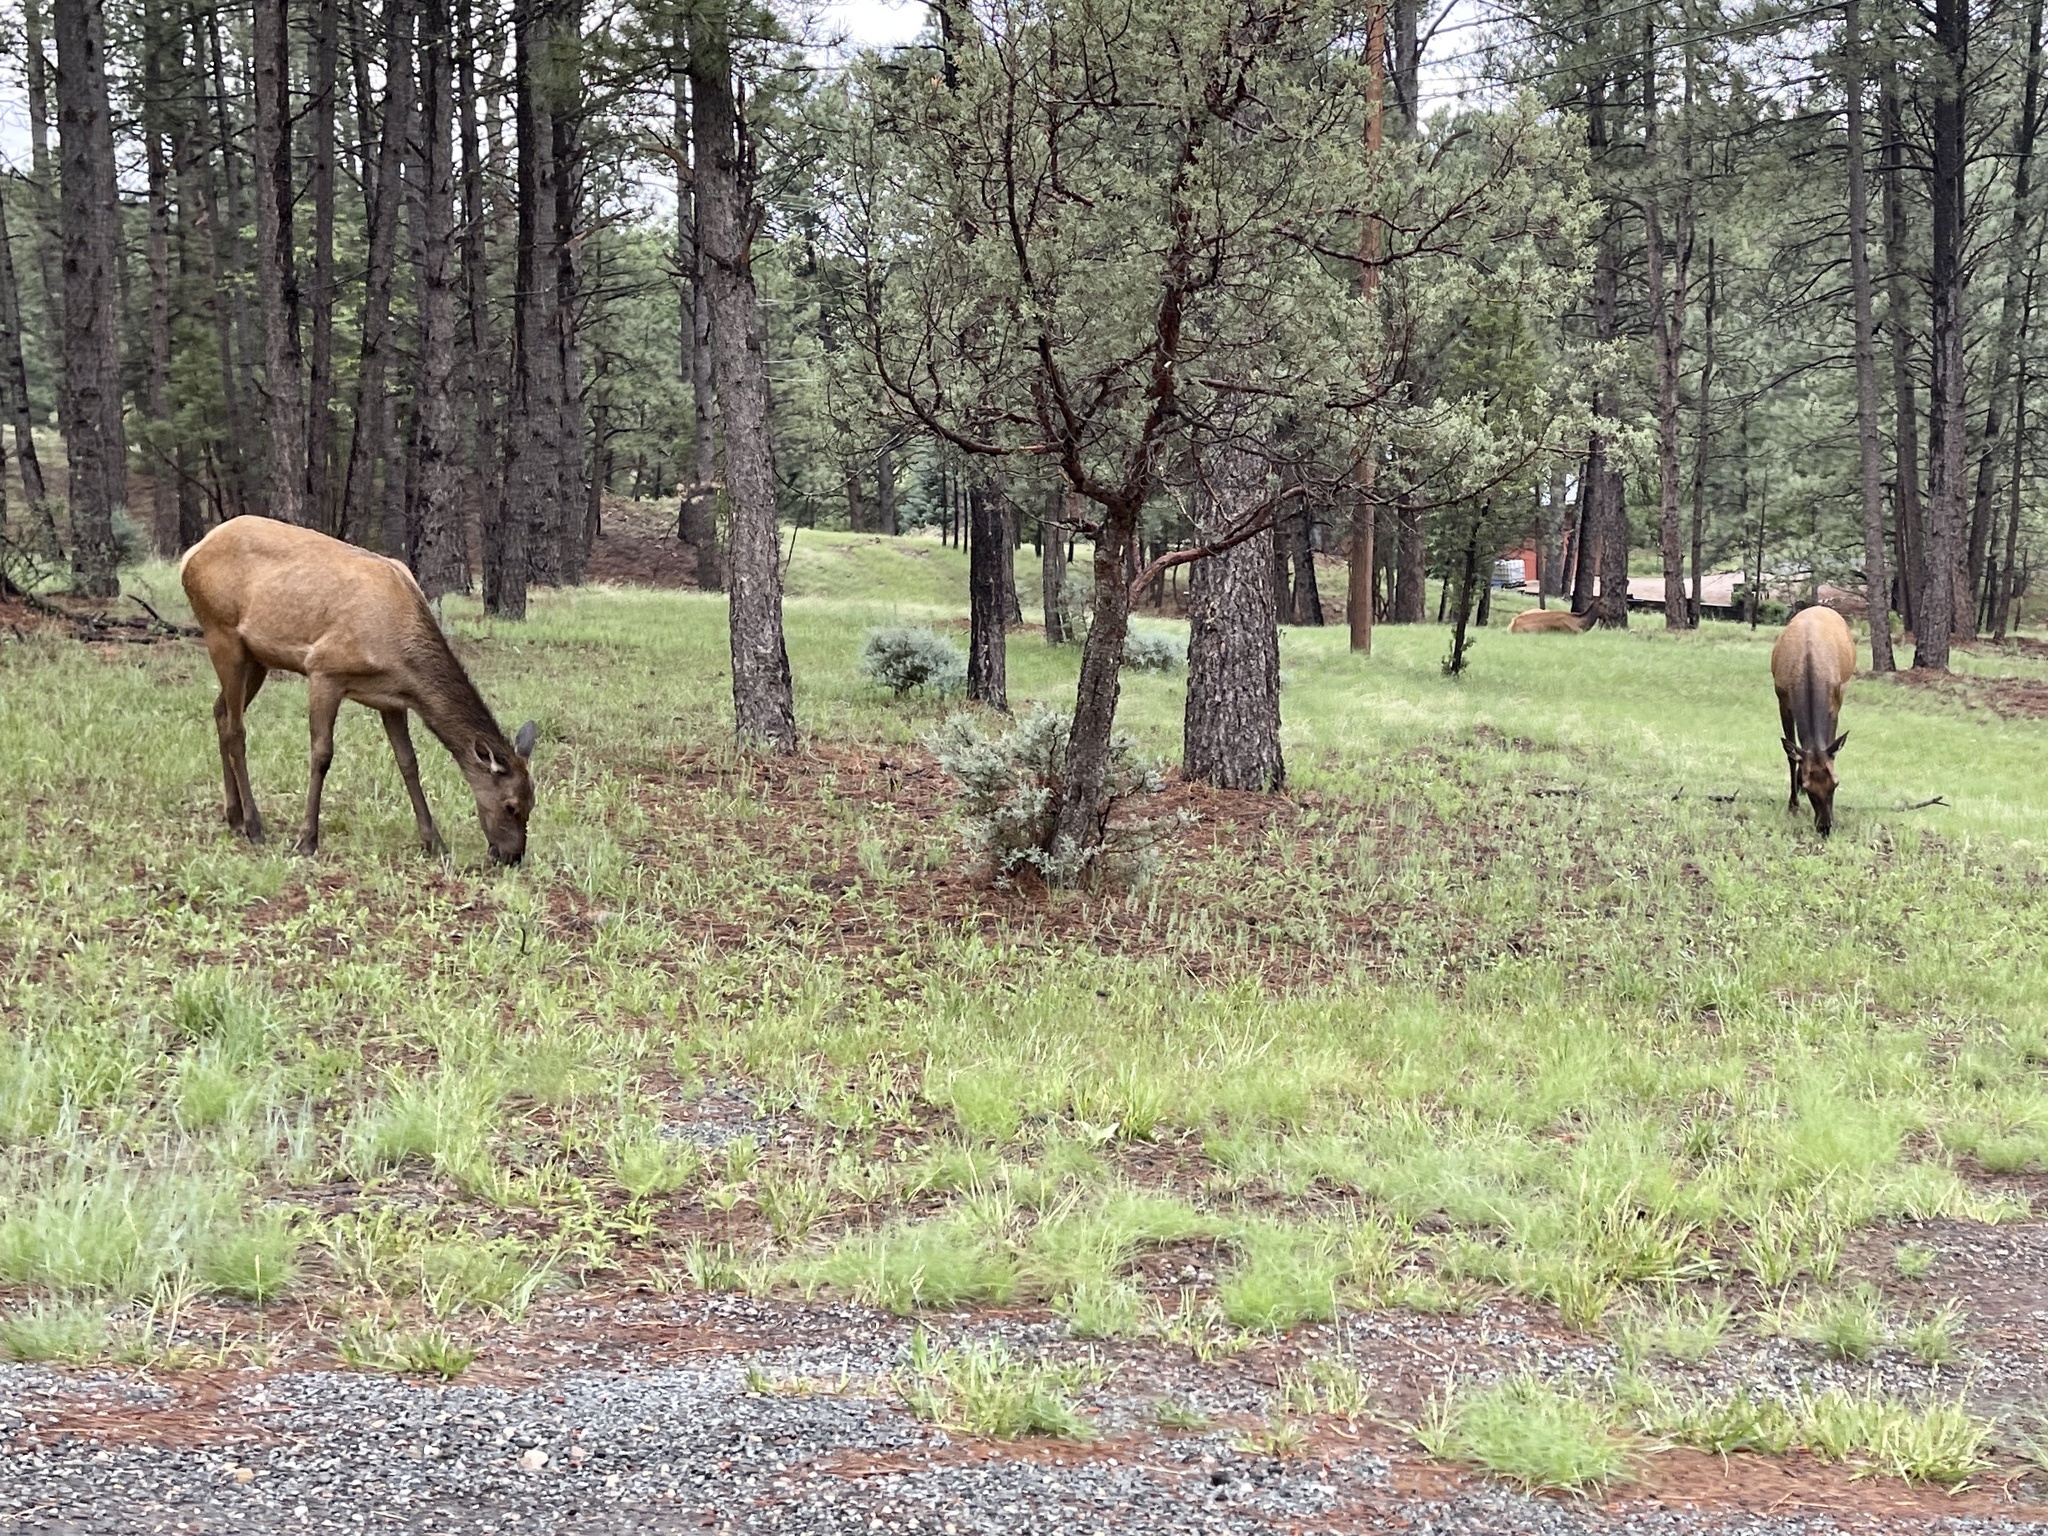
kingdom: Animalia
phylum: Chordata
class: Mammalia
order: Artiodactyla
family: Cervidae
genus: Cervus
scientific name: Cervus elaphus
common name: Red deer
